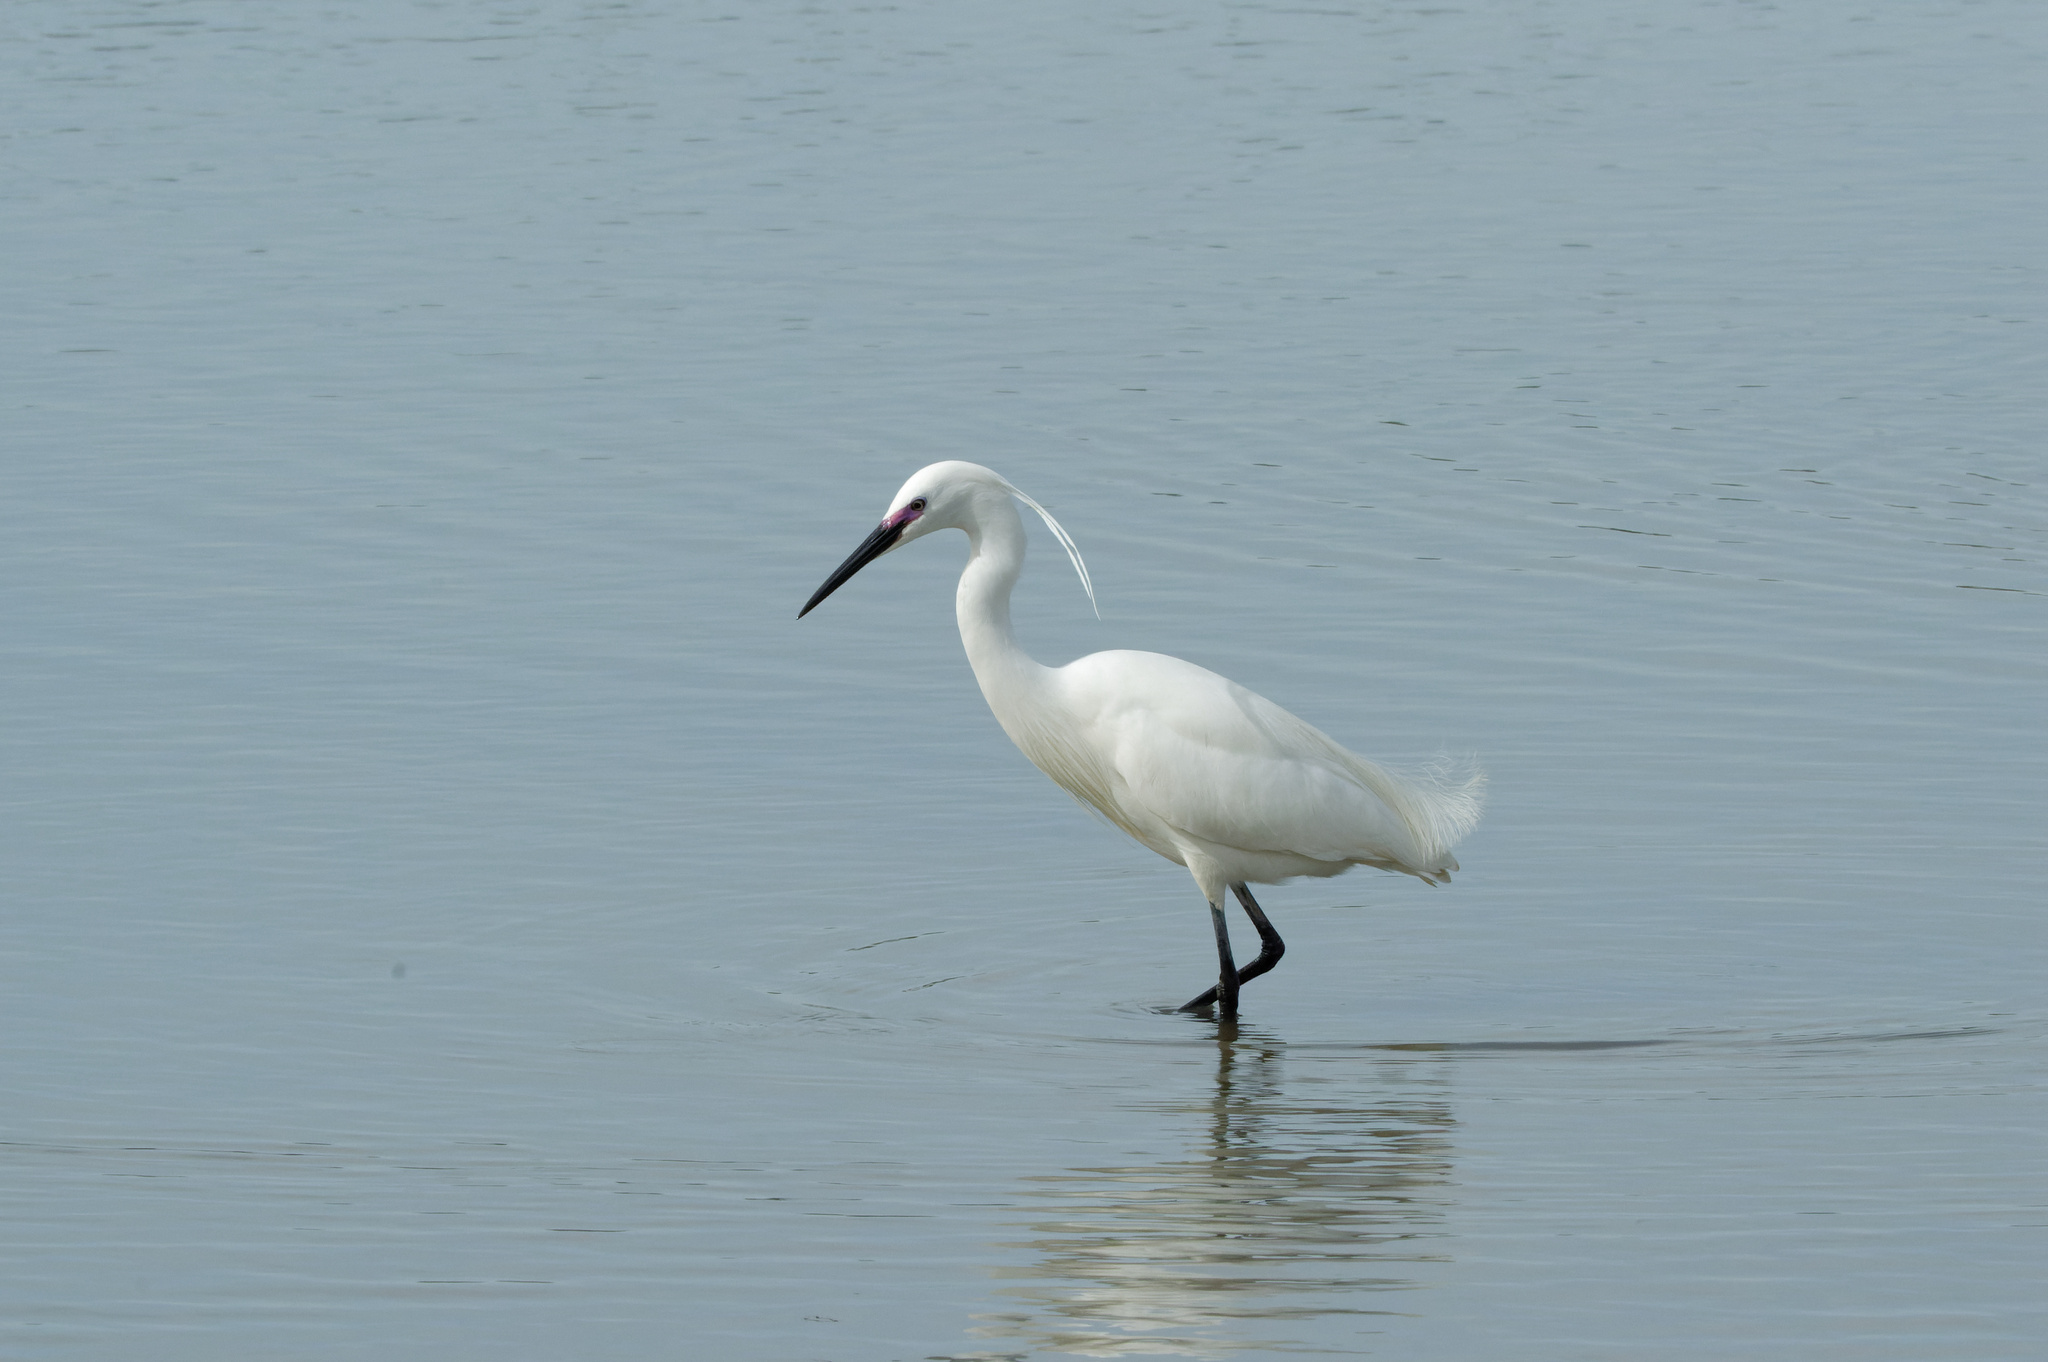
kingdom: Animalia
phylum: Chordata
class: Aves
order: Pelecaniformes
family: Ardeidae
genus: Egretta
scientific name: Egretta garzetta
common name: Little egret
